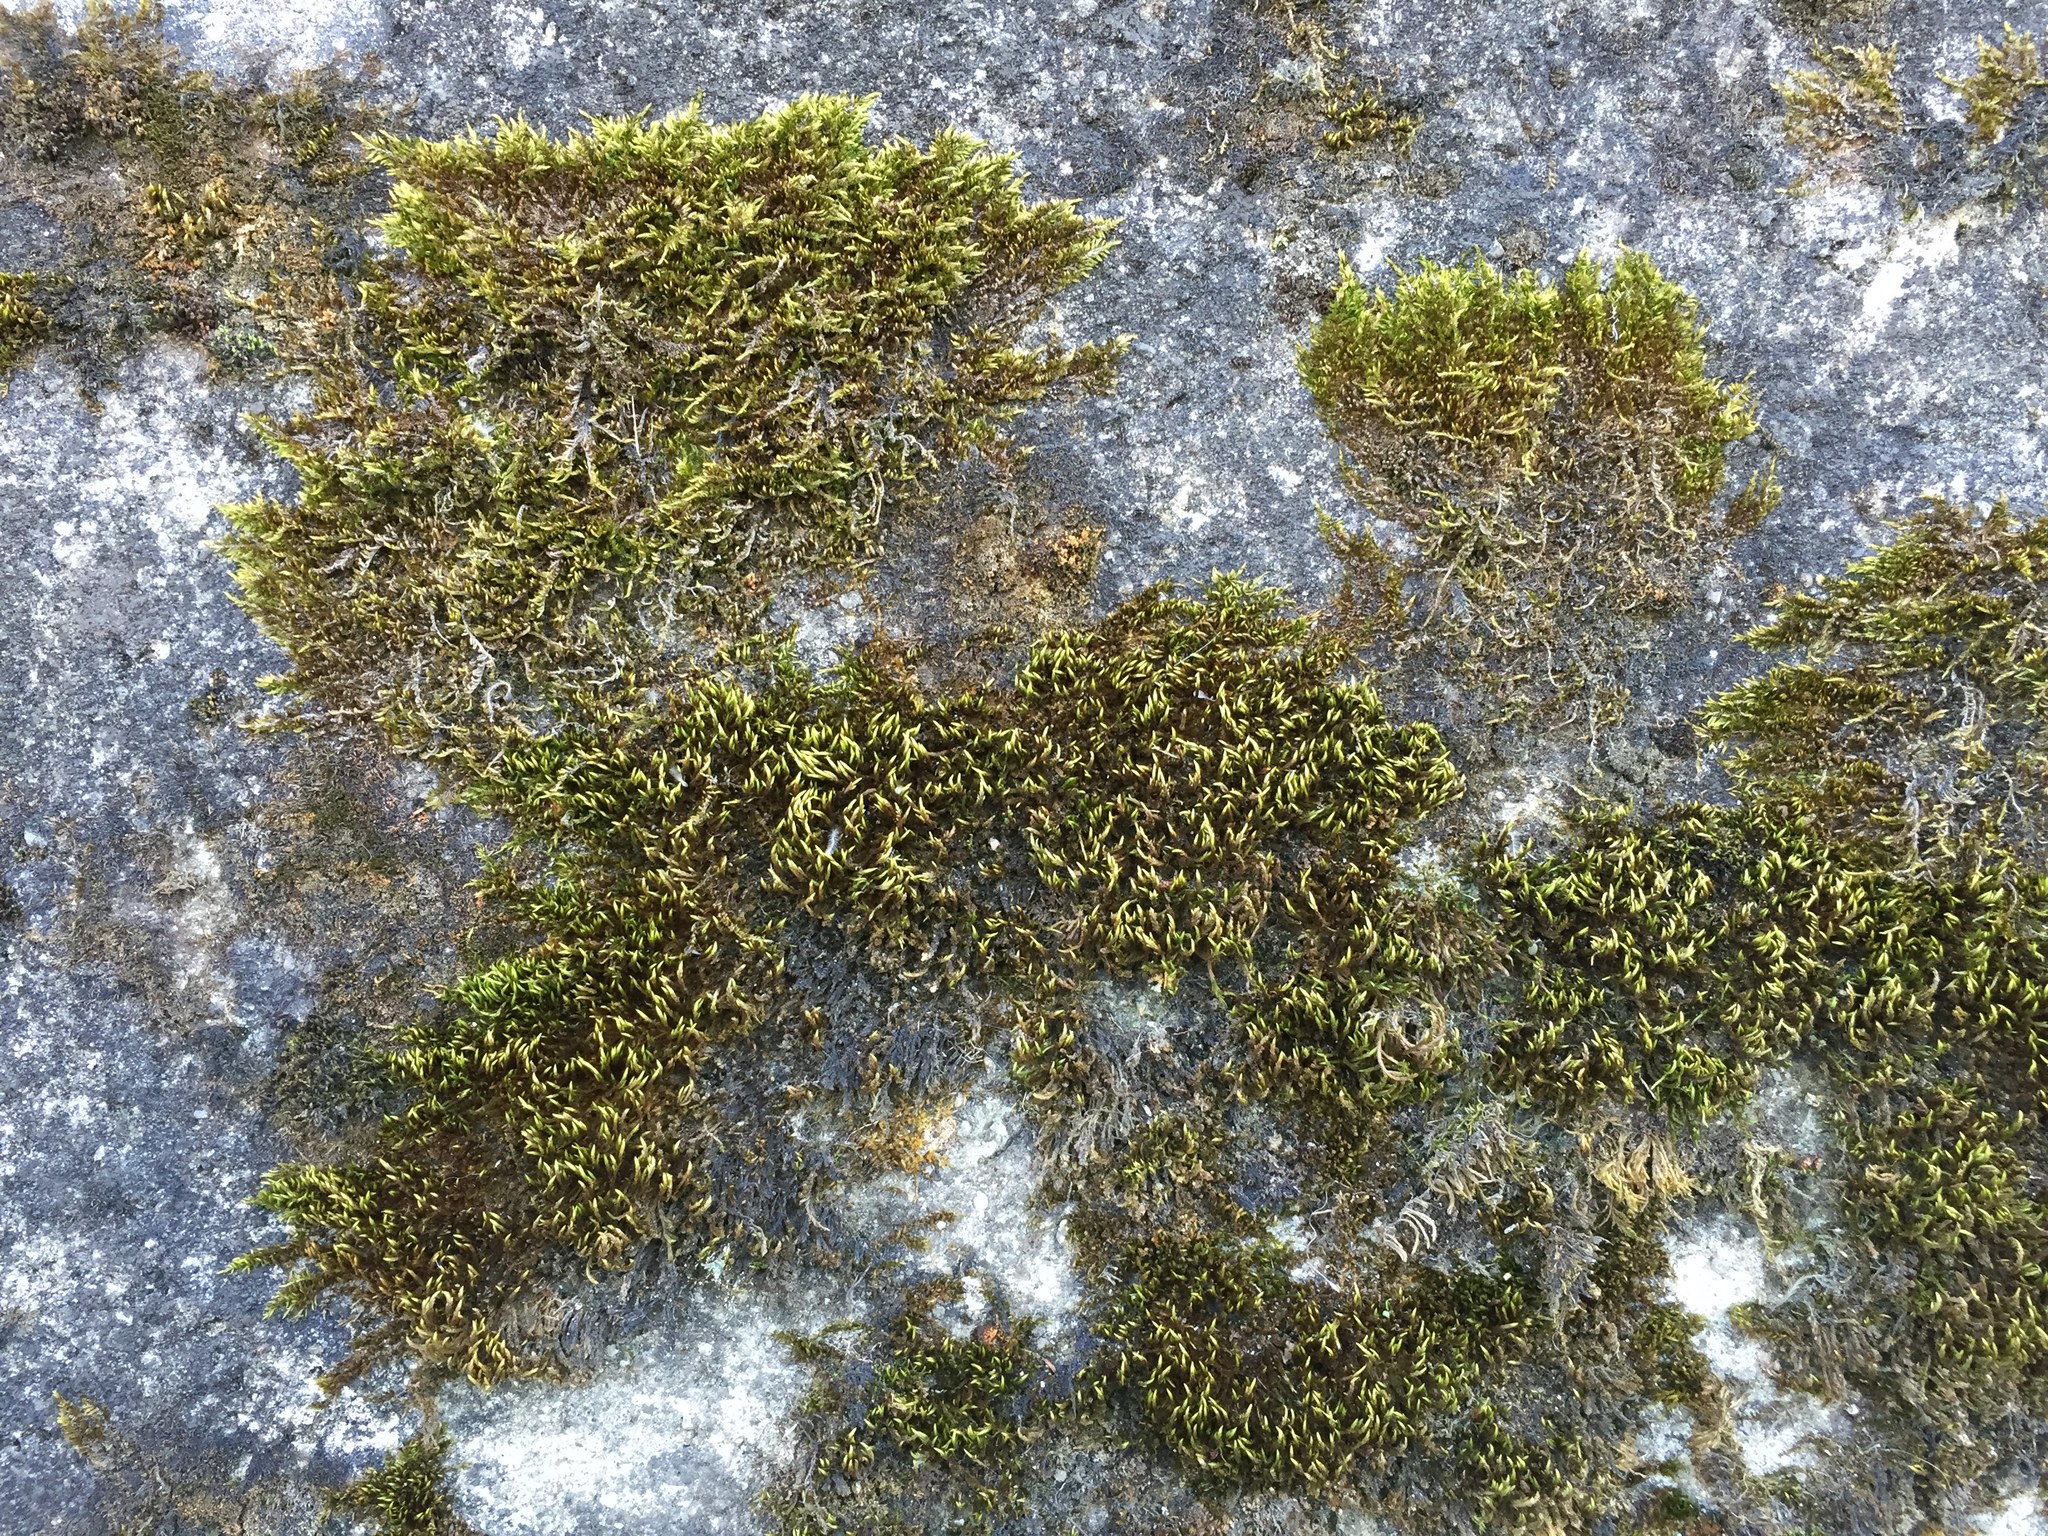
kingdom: Plantae
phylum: Bryophyta
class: Bryopsida
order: Hypnales
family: Brachytheciaceae
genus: Homalothecium
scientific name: Homalothecium sericeum
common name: Silky wall feather-moss
